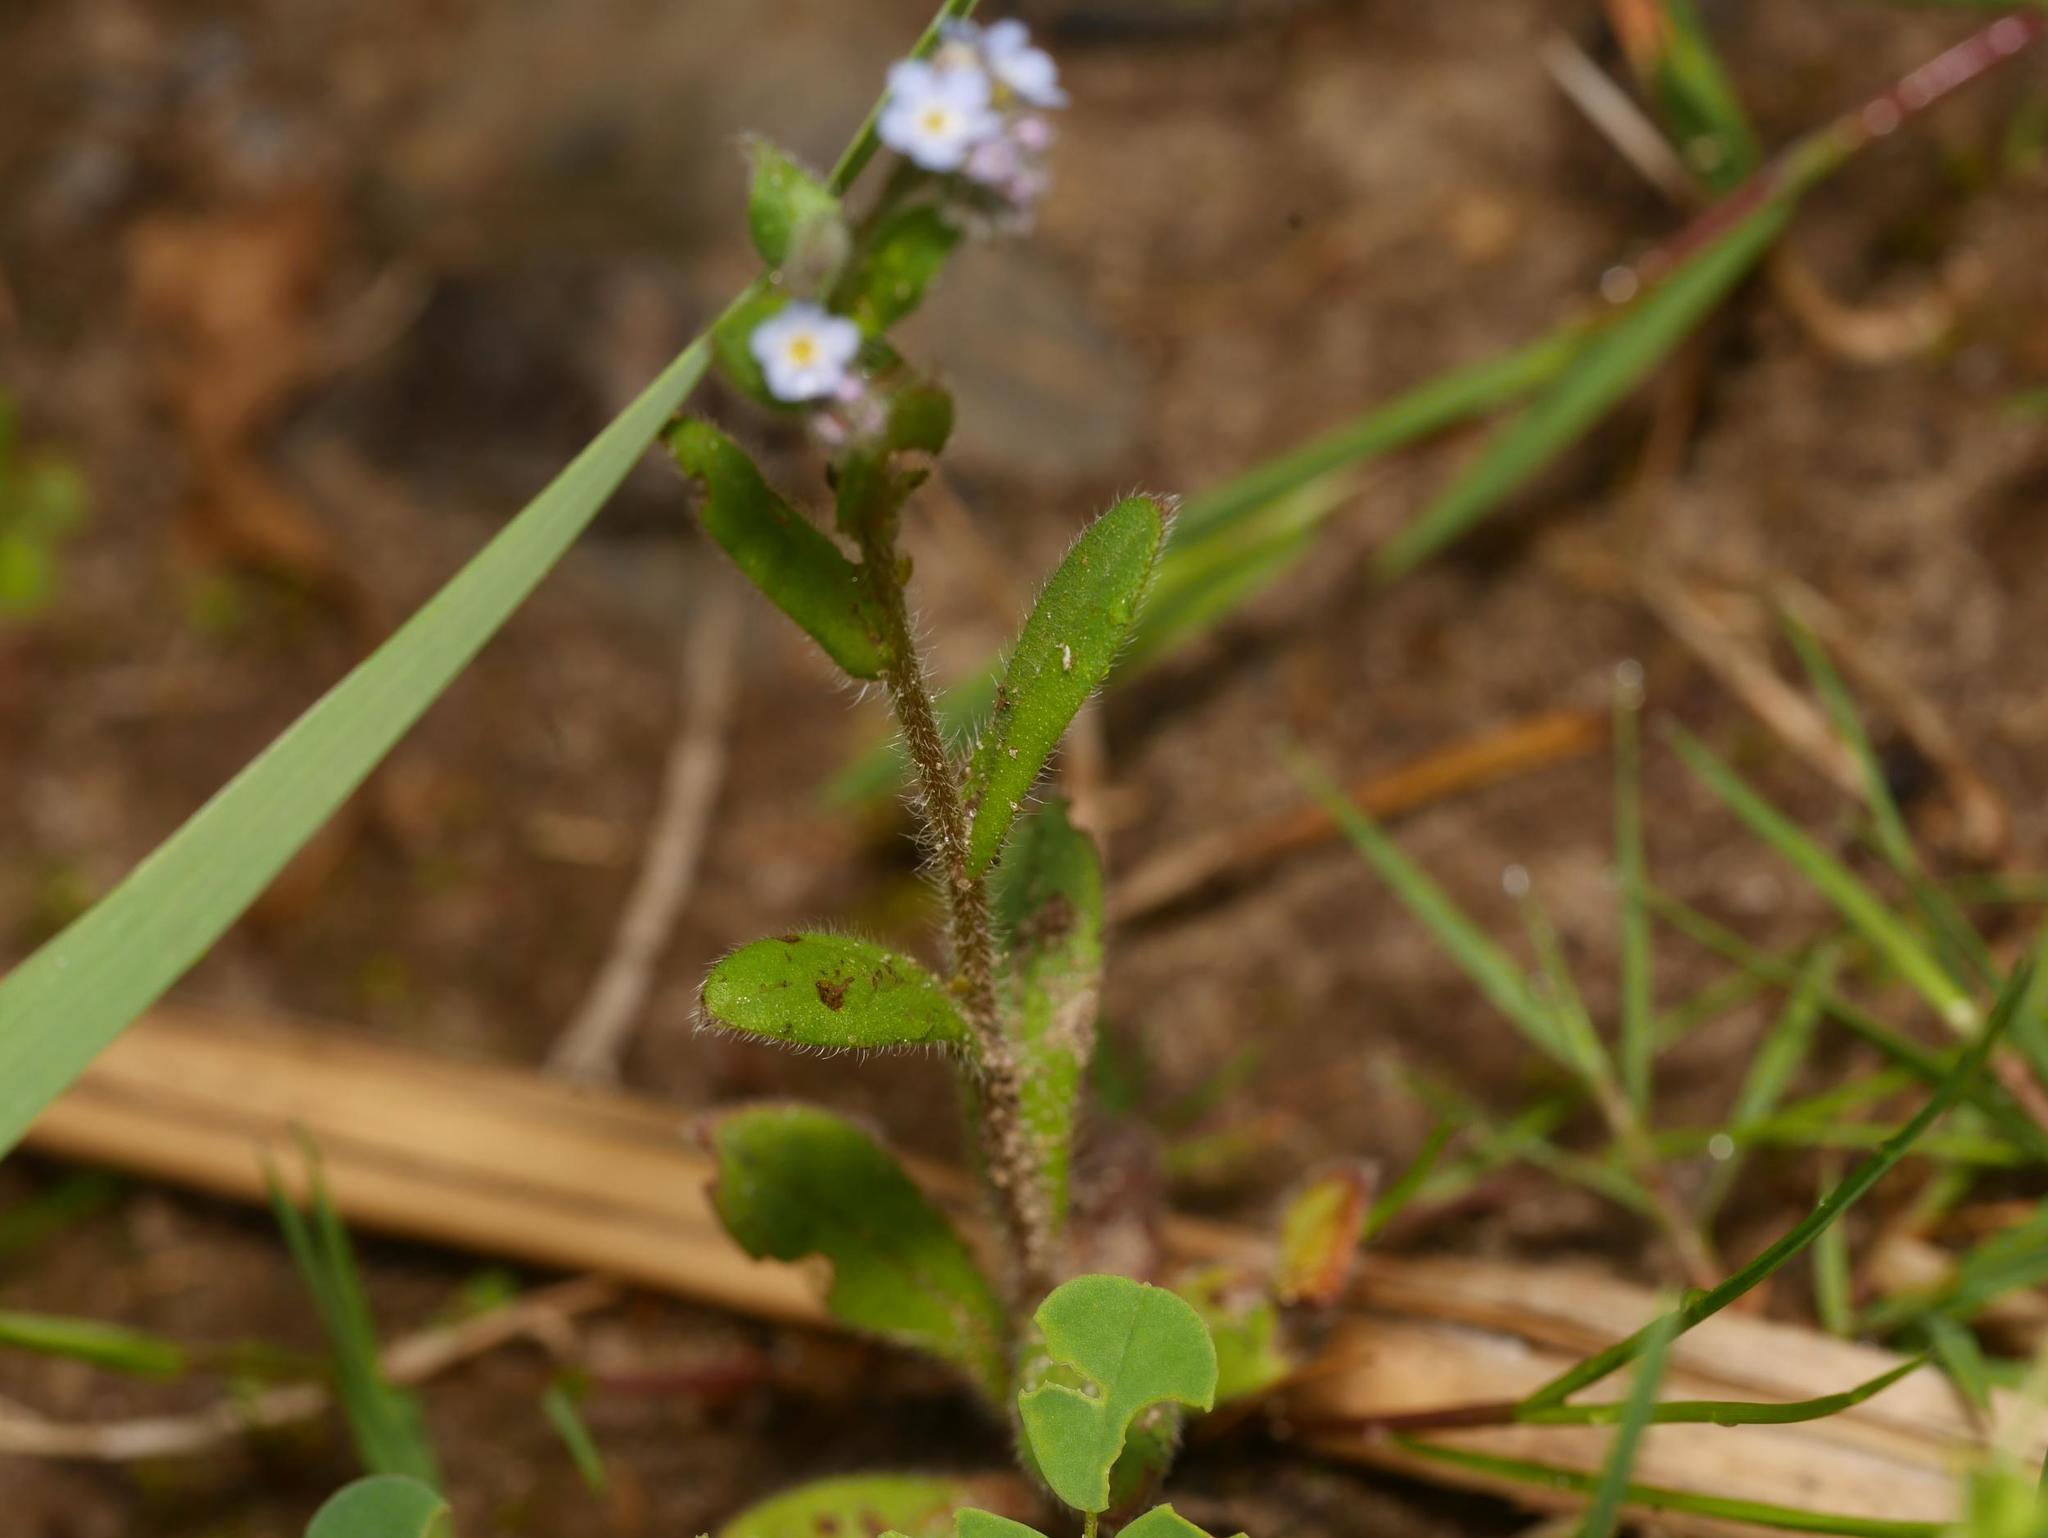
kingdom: Plantae
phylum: Tracheophyta
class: Magnoliopsida
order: Boraginales
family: Boraginaceae
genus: Myosotis
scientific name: Myosotis arvensis
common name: Field forget-me-not
